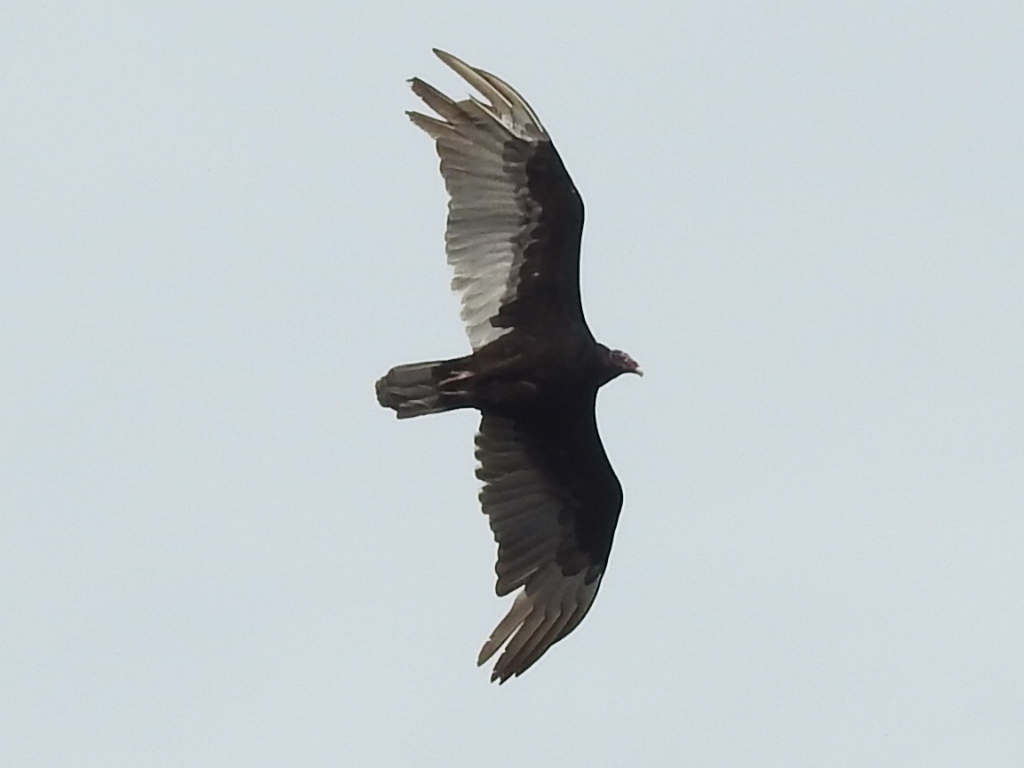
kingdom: Animalia
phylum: Chordata
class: Aves
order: Accipitriformes
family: Cathartidae
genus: Cathartes
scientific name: Cathartes aura
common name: Turkey vulture
